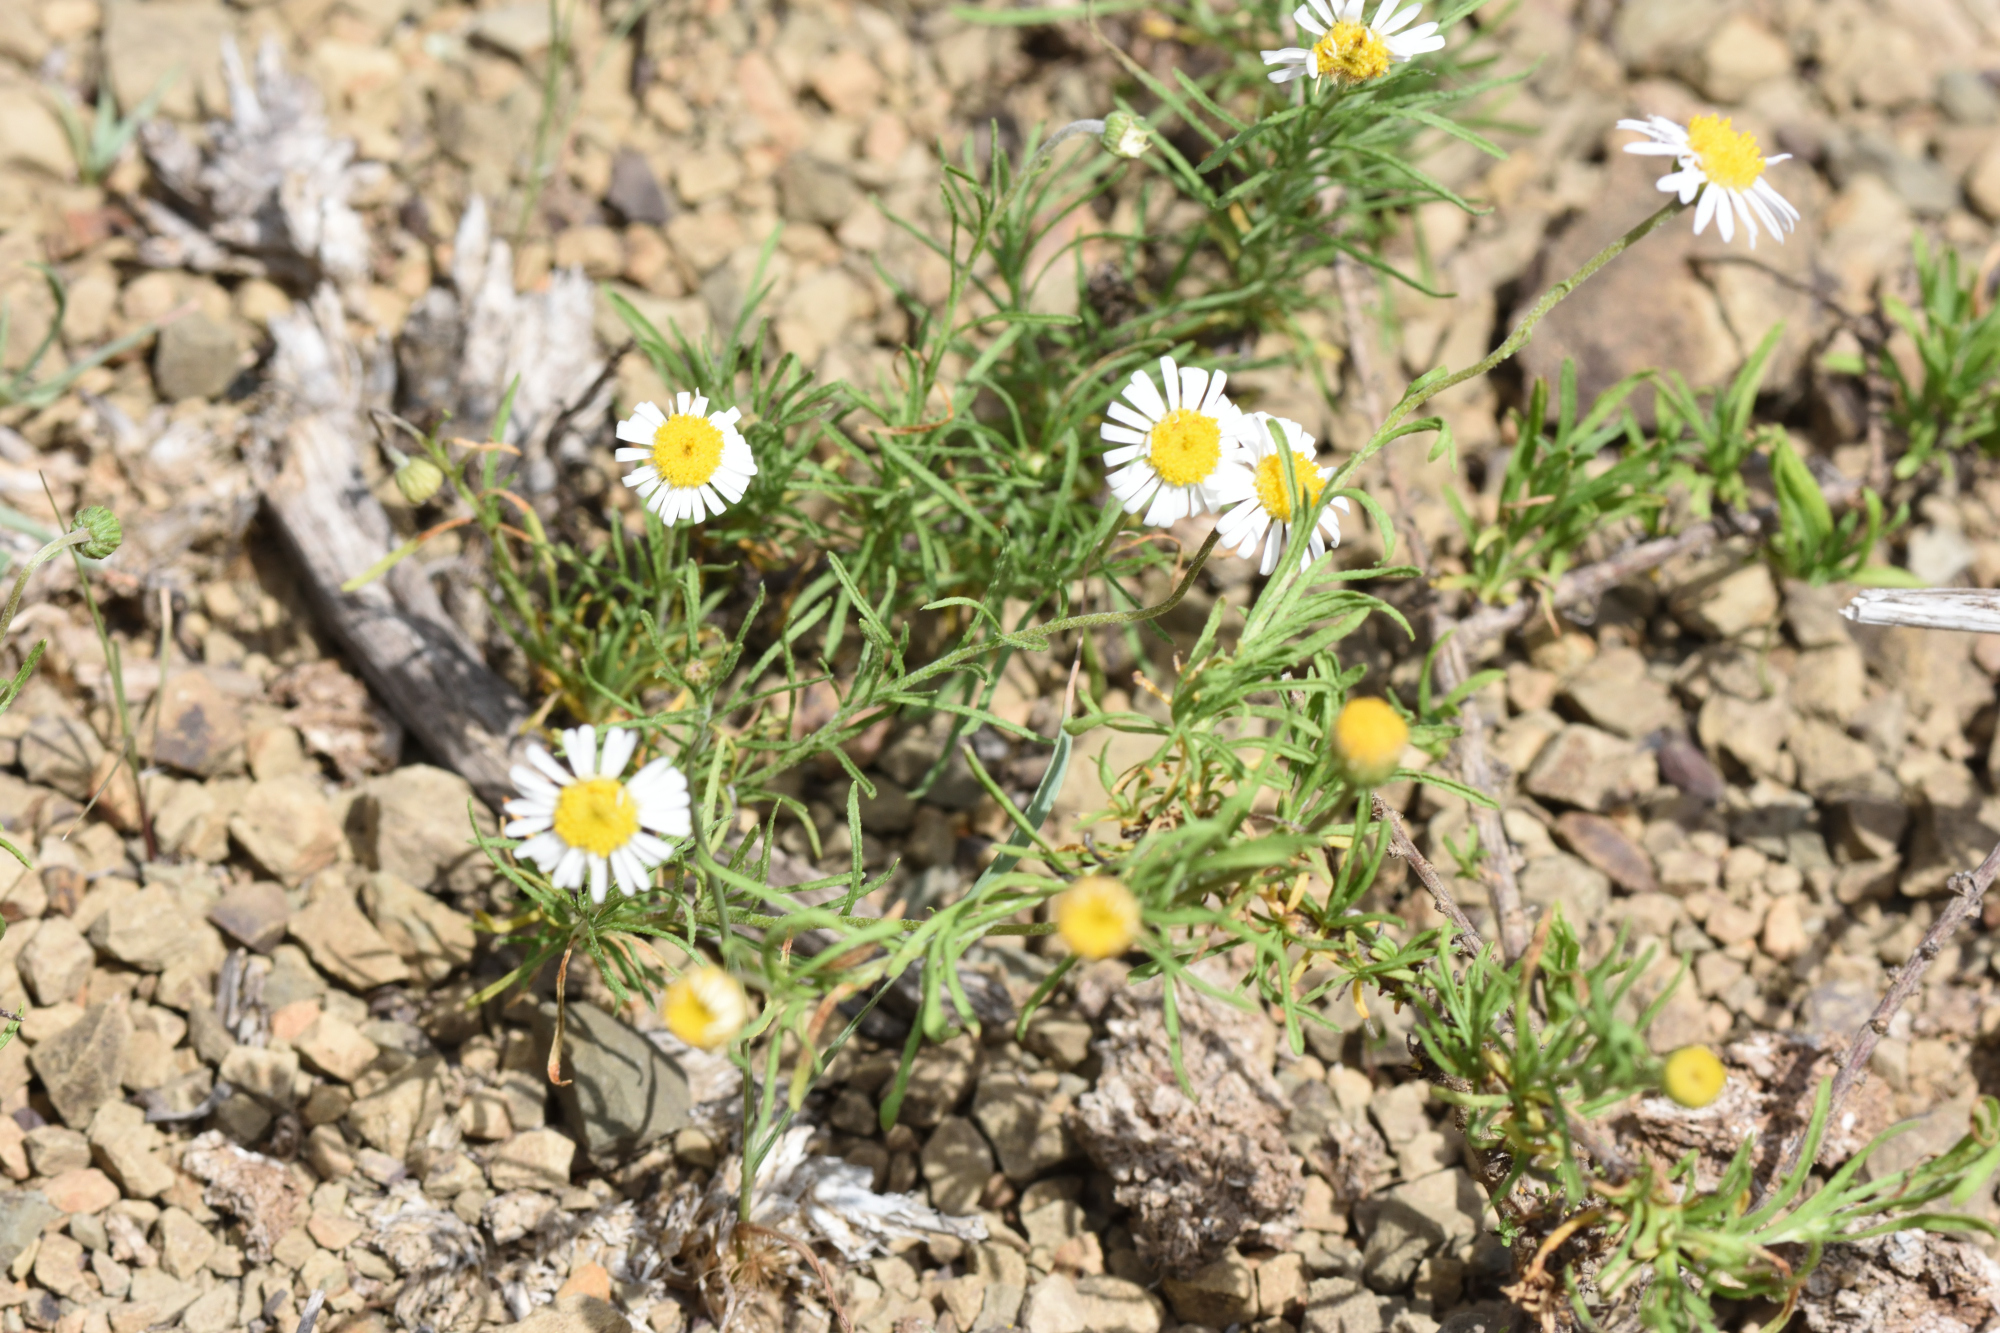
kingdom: Plantae
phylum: Tracheophyta
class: Magnoliopsida
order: Asterales
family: Asteraceae
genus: Felicia
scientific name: Felicia muricata
